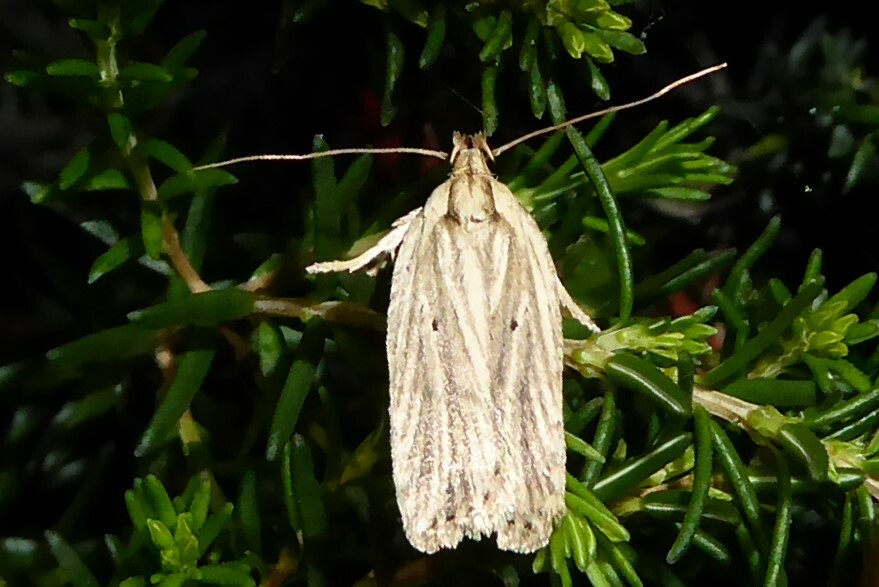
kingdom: Animalia
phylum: Arthropoda
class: Insecta
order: Lepidoptera
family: Depressariidae
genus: Agonopterix
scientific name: Agonopterix
